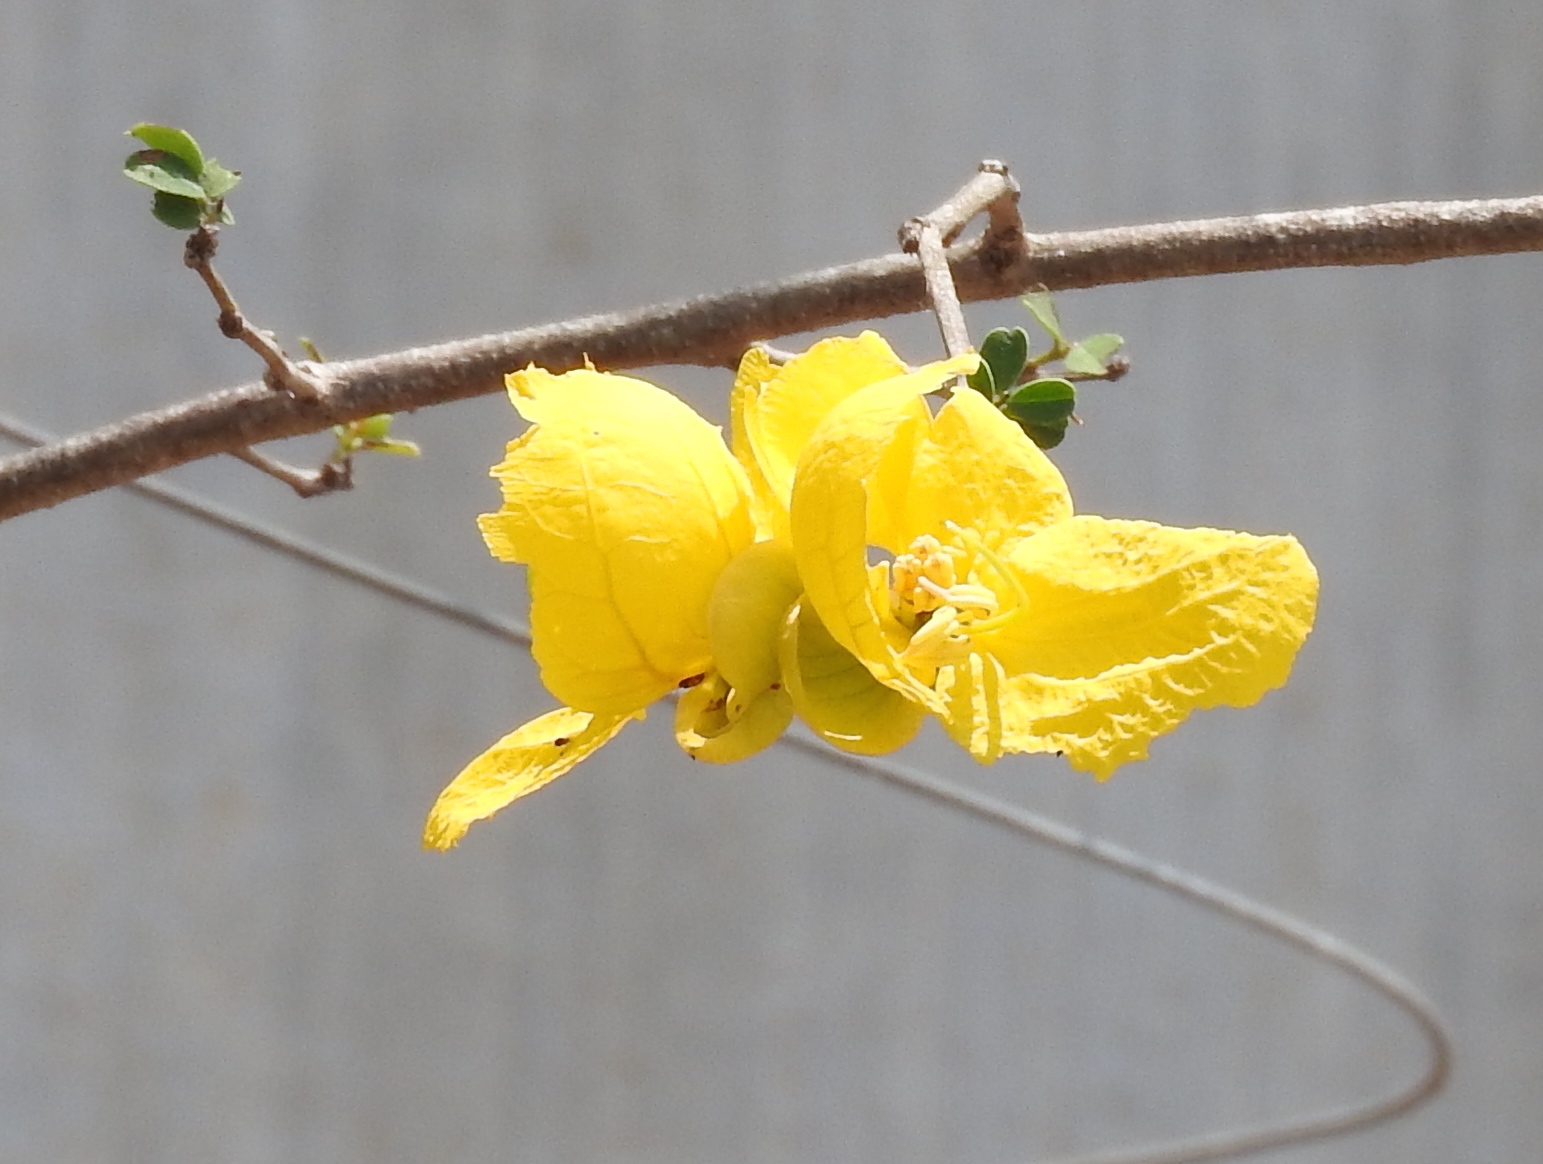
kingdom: Plantae
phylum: Tracheophyta
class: Magnoliopsida
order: Fabales
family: Fabaceae
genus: Senna
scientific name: Senna pallida
